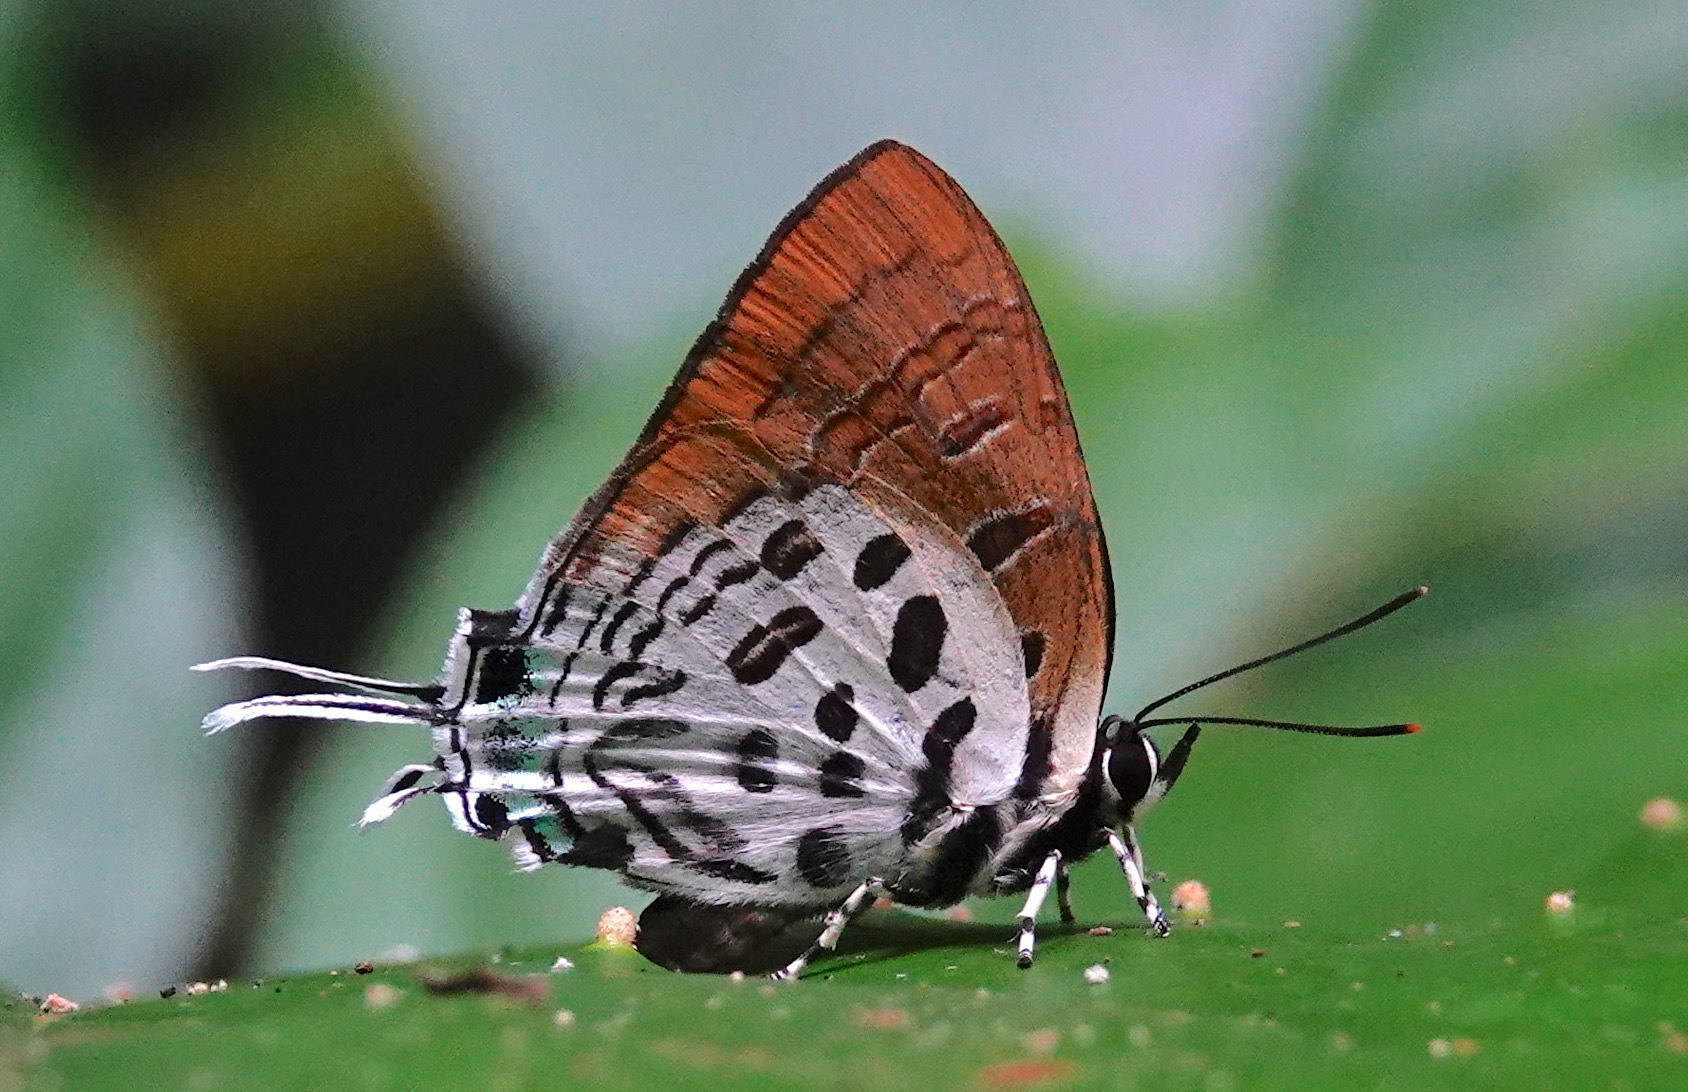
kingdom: Animalia
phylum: Arthropoda
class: Insecta
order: Lepidoptera
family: Lycaenidae
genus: Drupadia
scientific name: Drupadia theda
